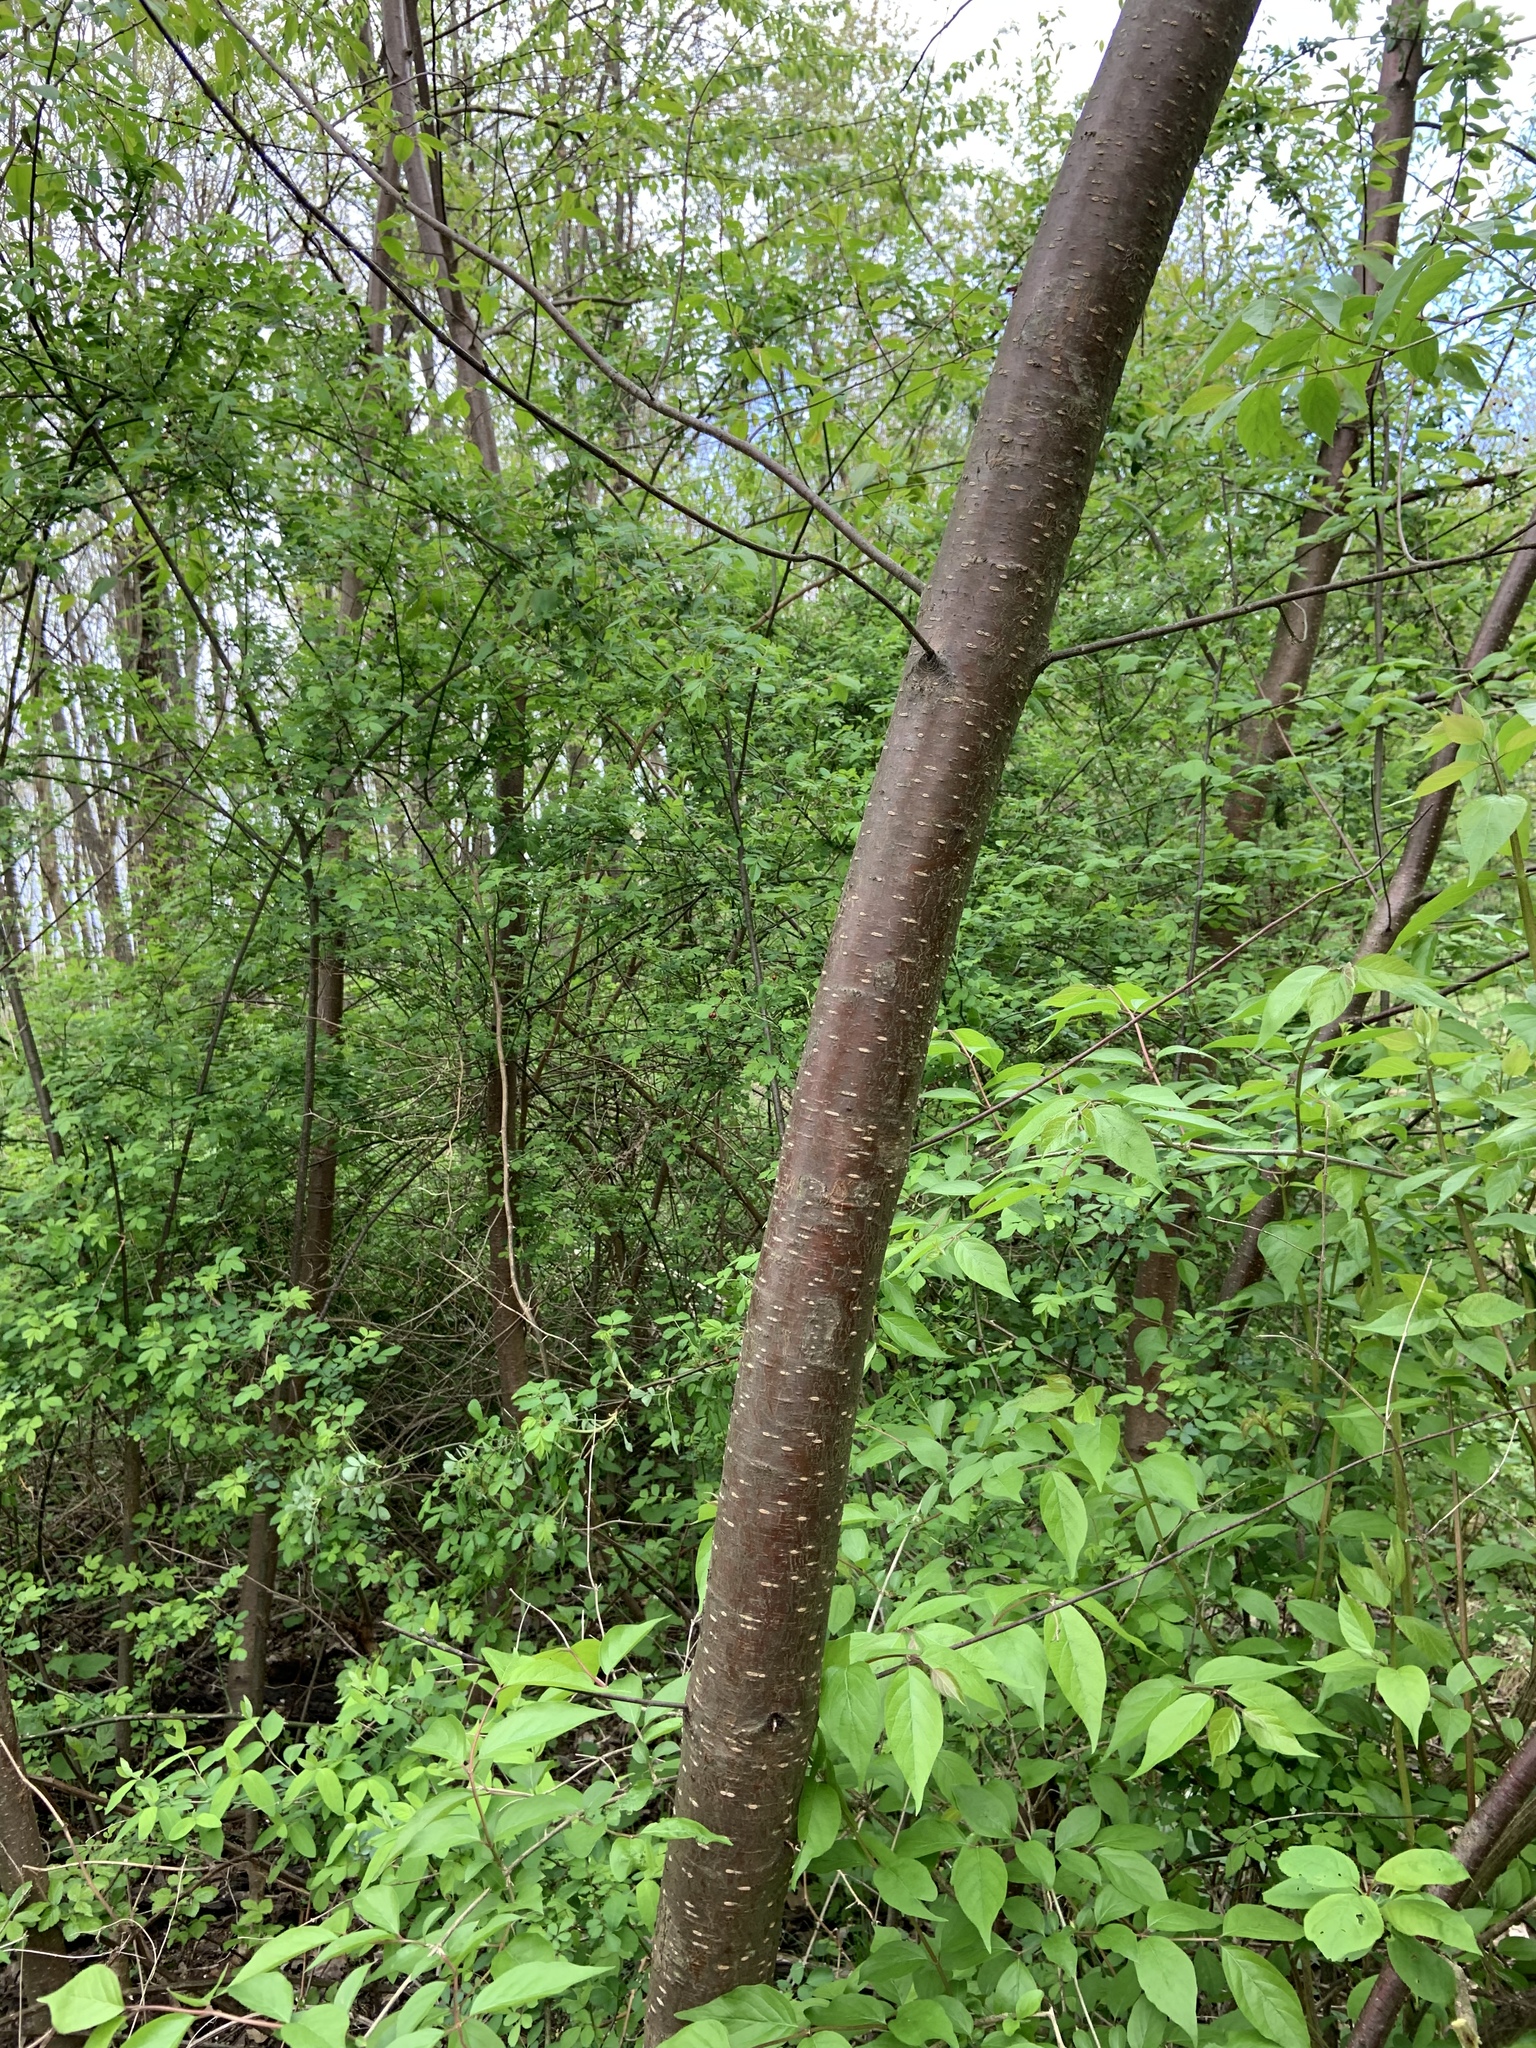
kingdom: Plantae
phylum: Tracheophyta
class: Magnoliopsida
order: Rosales
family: Rosaceae
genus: Prunus
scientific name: Prunus pensylvanica
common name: Pin cherry
